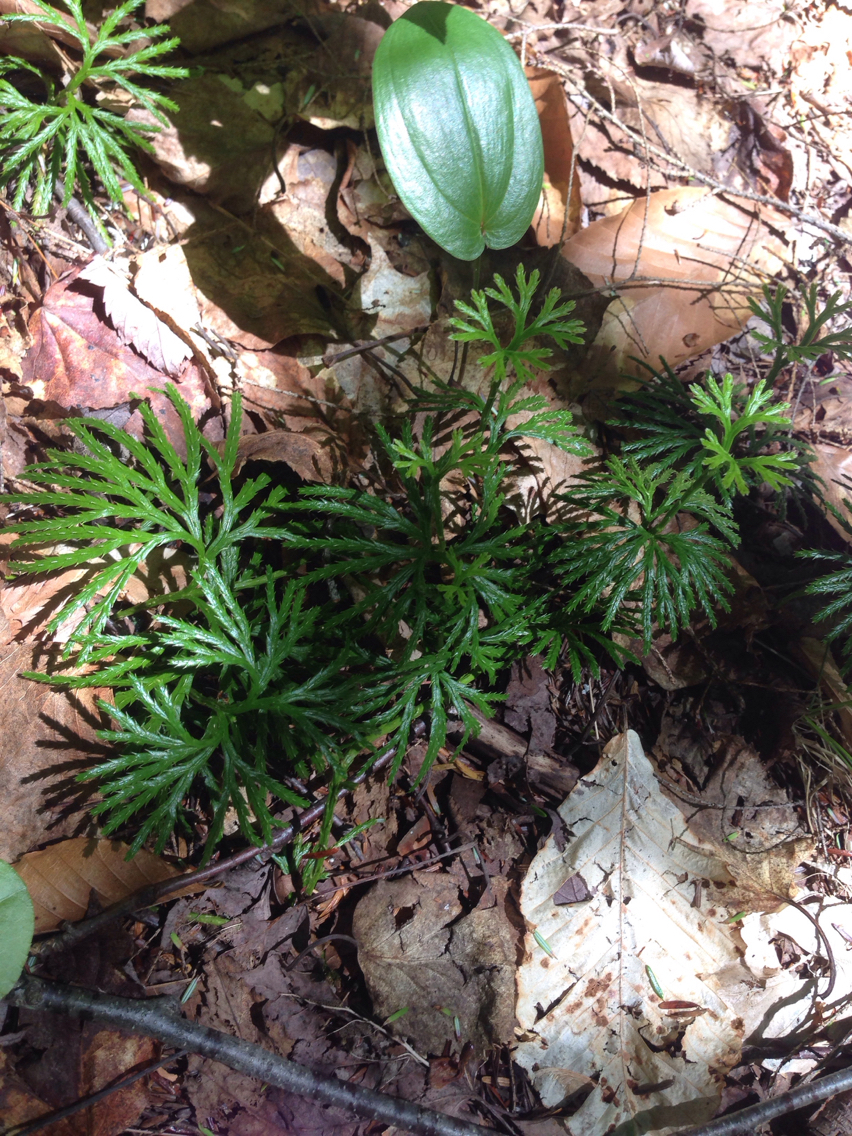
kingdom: Plantae
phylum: Tracheophyta
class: Lycopodiopsida
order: Lycopodiales
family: Lycopodiaceae
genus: Diphasiastrum
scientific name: Diphasiastrum digitatum
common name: Southern running-pine
